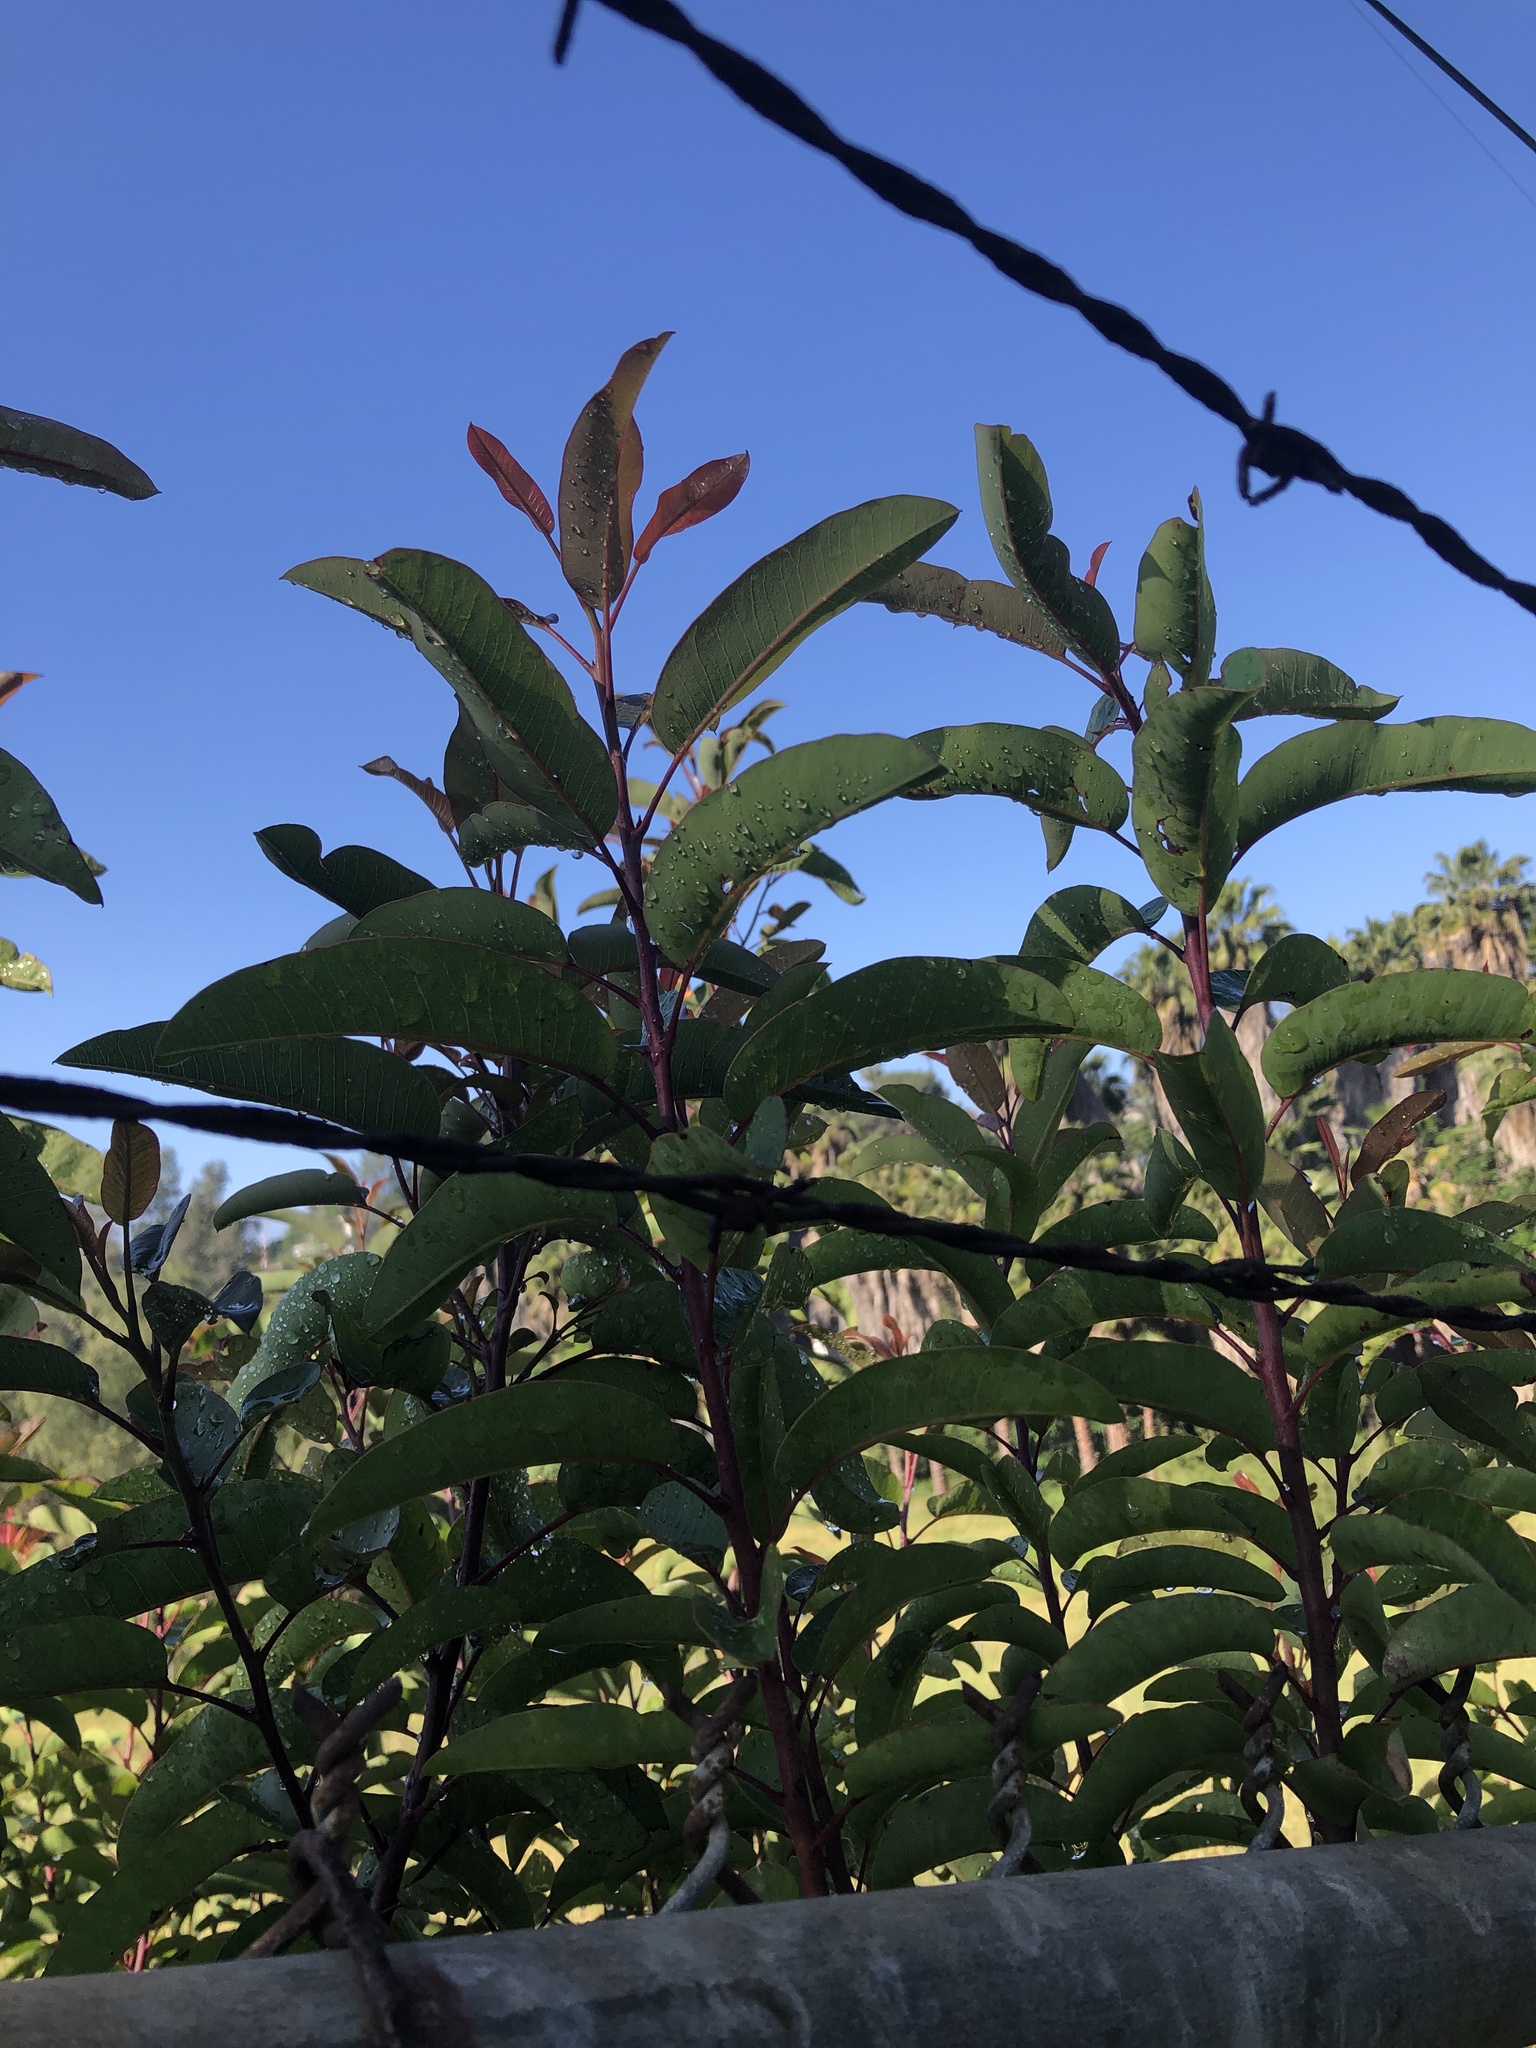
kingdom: Plantae
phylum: Tracheophyta
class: Magnoliopsida
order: Sapindales
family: Anacardiaceae
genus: Malosma
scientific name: Malosma laurina
